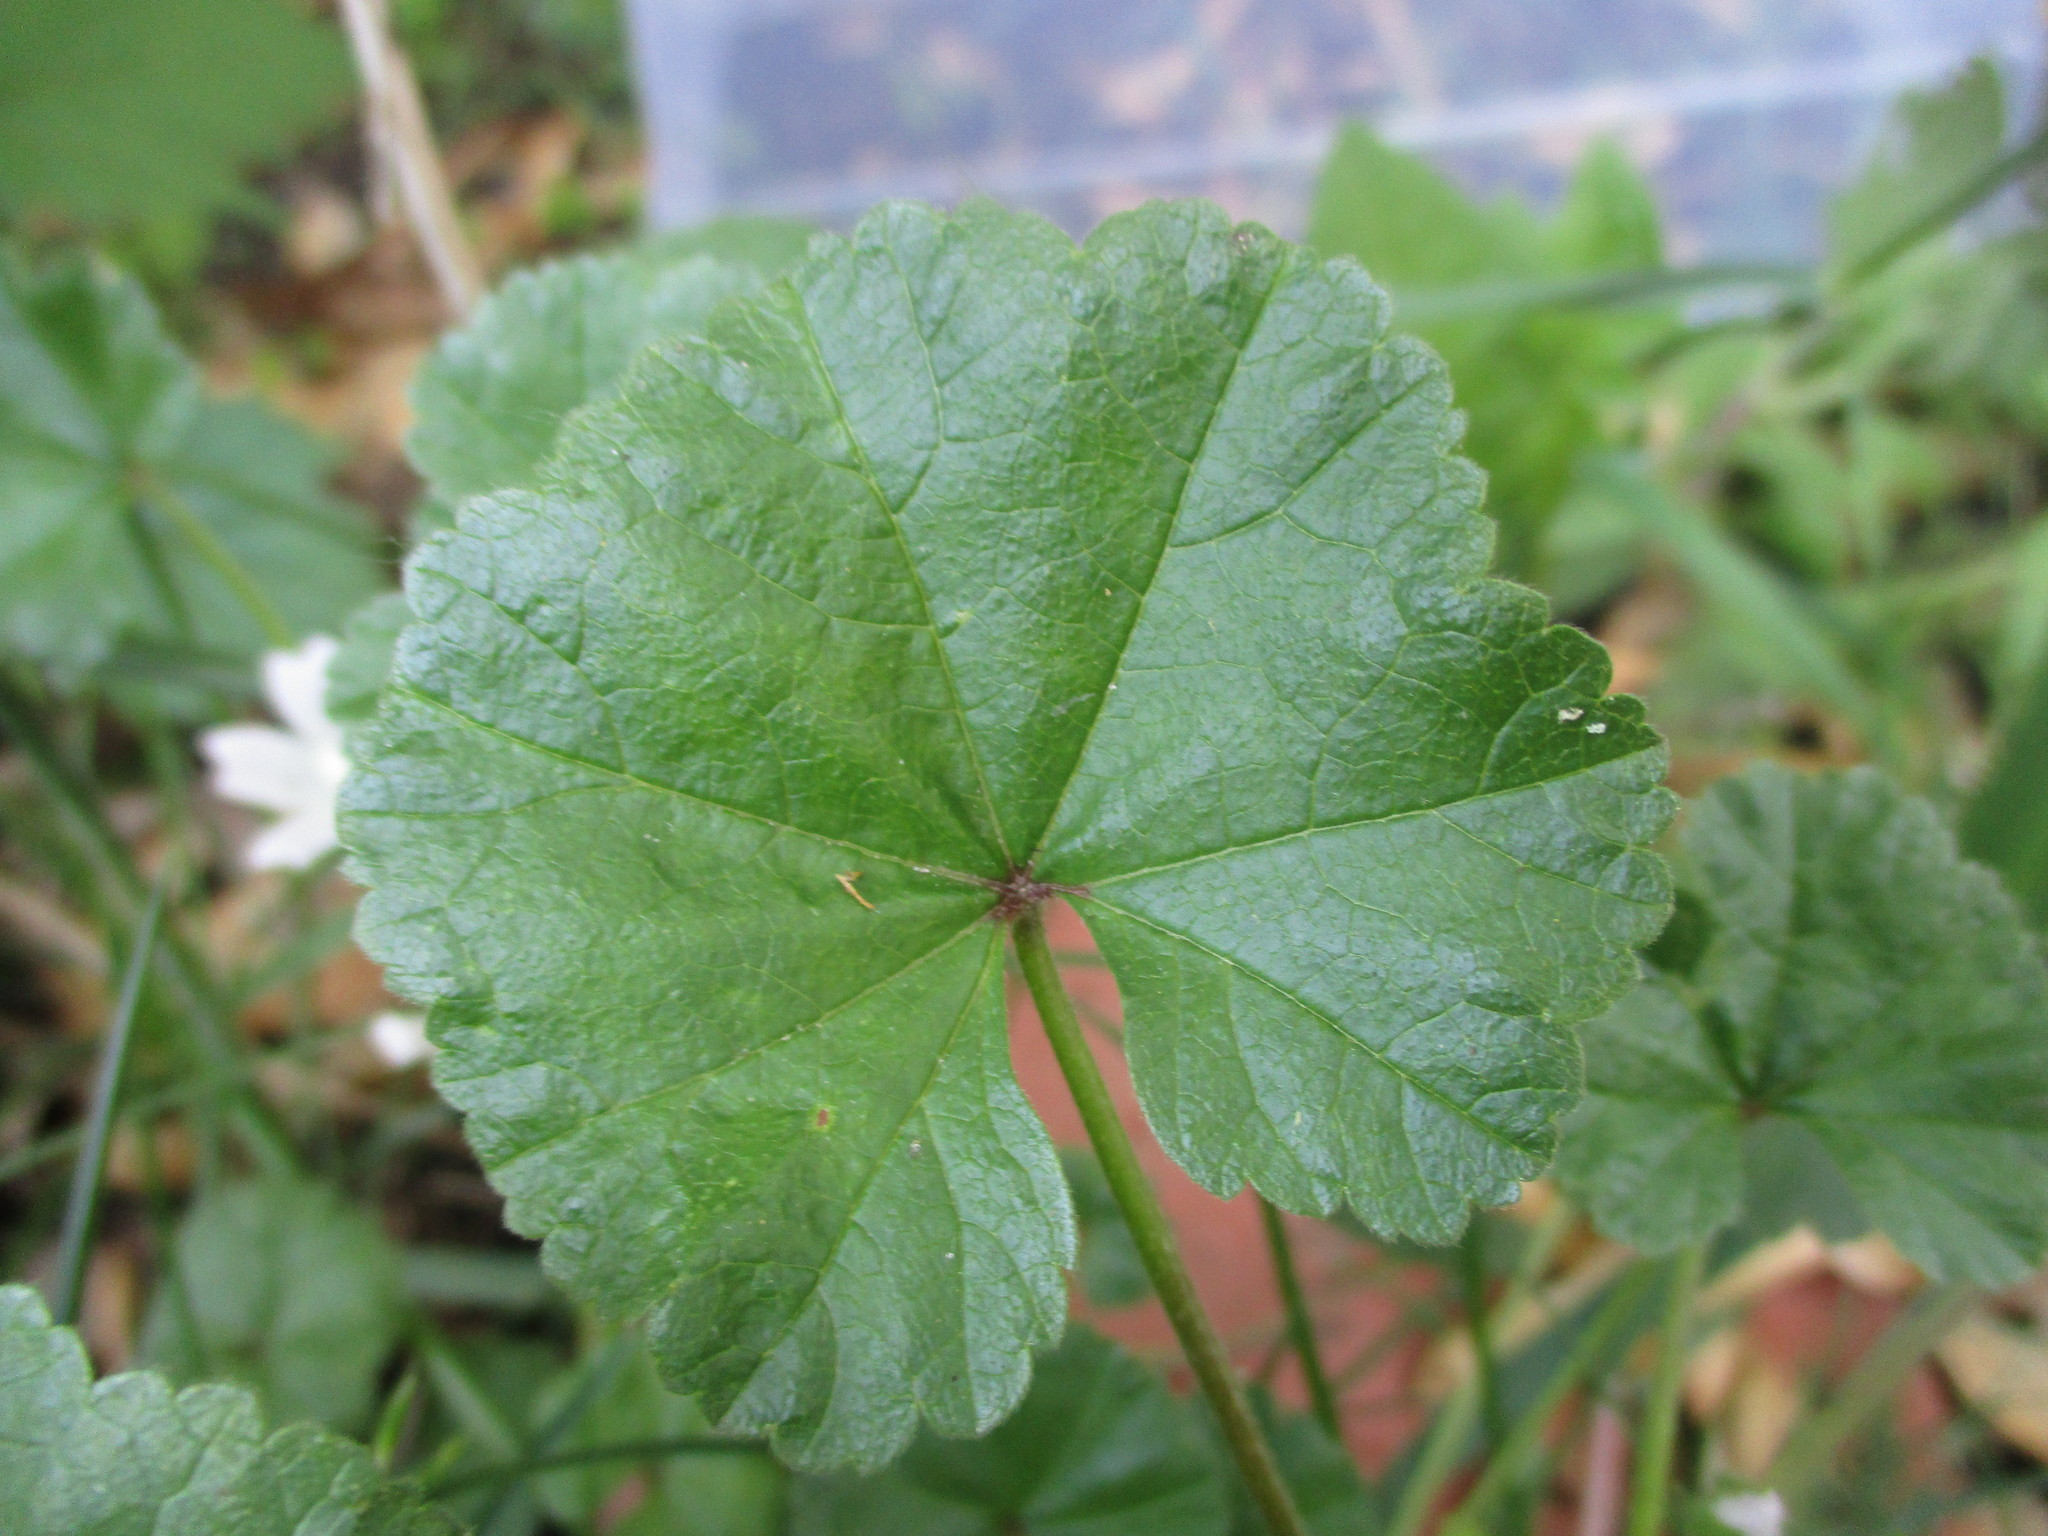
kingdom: Plantae
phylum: Tracheophyta
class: Magnoliopsida
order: Malvales
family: Malvaceae
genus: Malva
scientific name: Malva neglecta
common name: Common mallow
